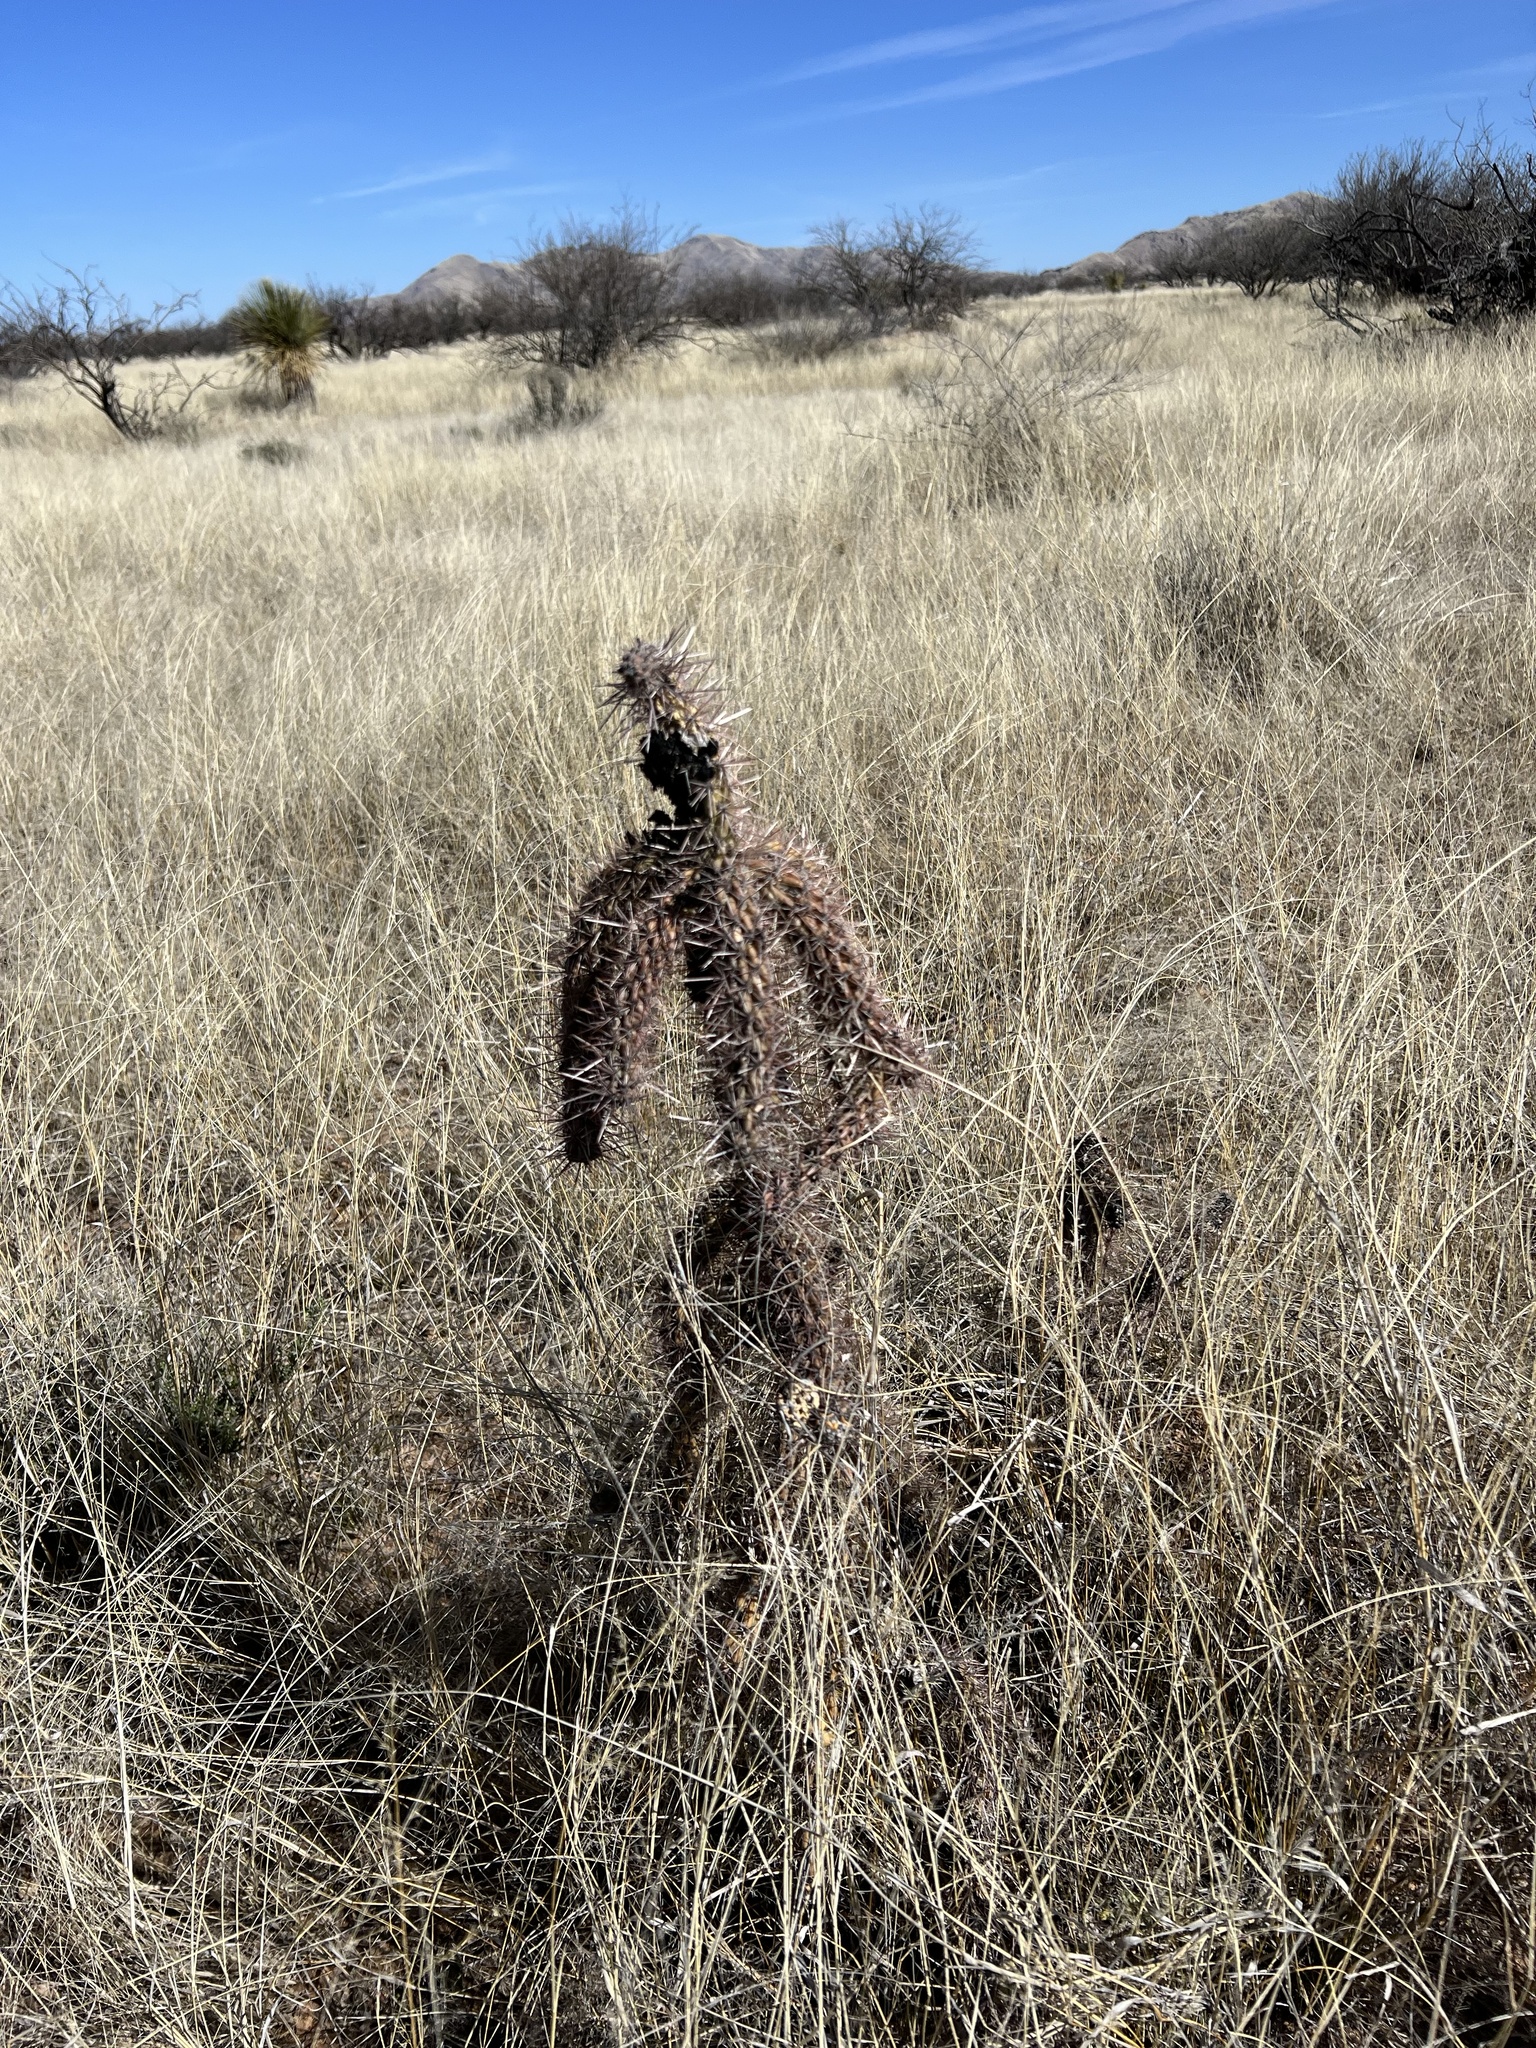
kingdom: Plantae
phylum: Tracheophyta
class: Magnoliopsida
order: Caryophyllales
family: Cactaceae
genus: Cylindropuntia
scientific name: Cylindropuntia imbricata
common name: Candelabrum cactus
